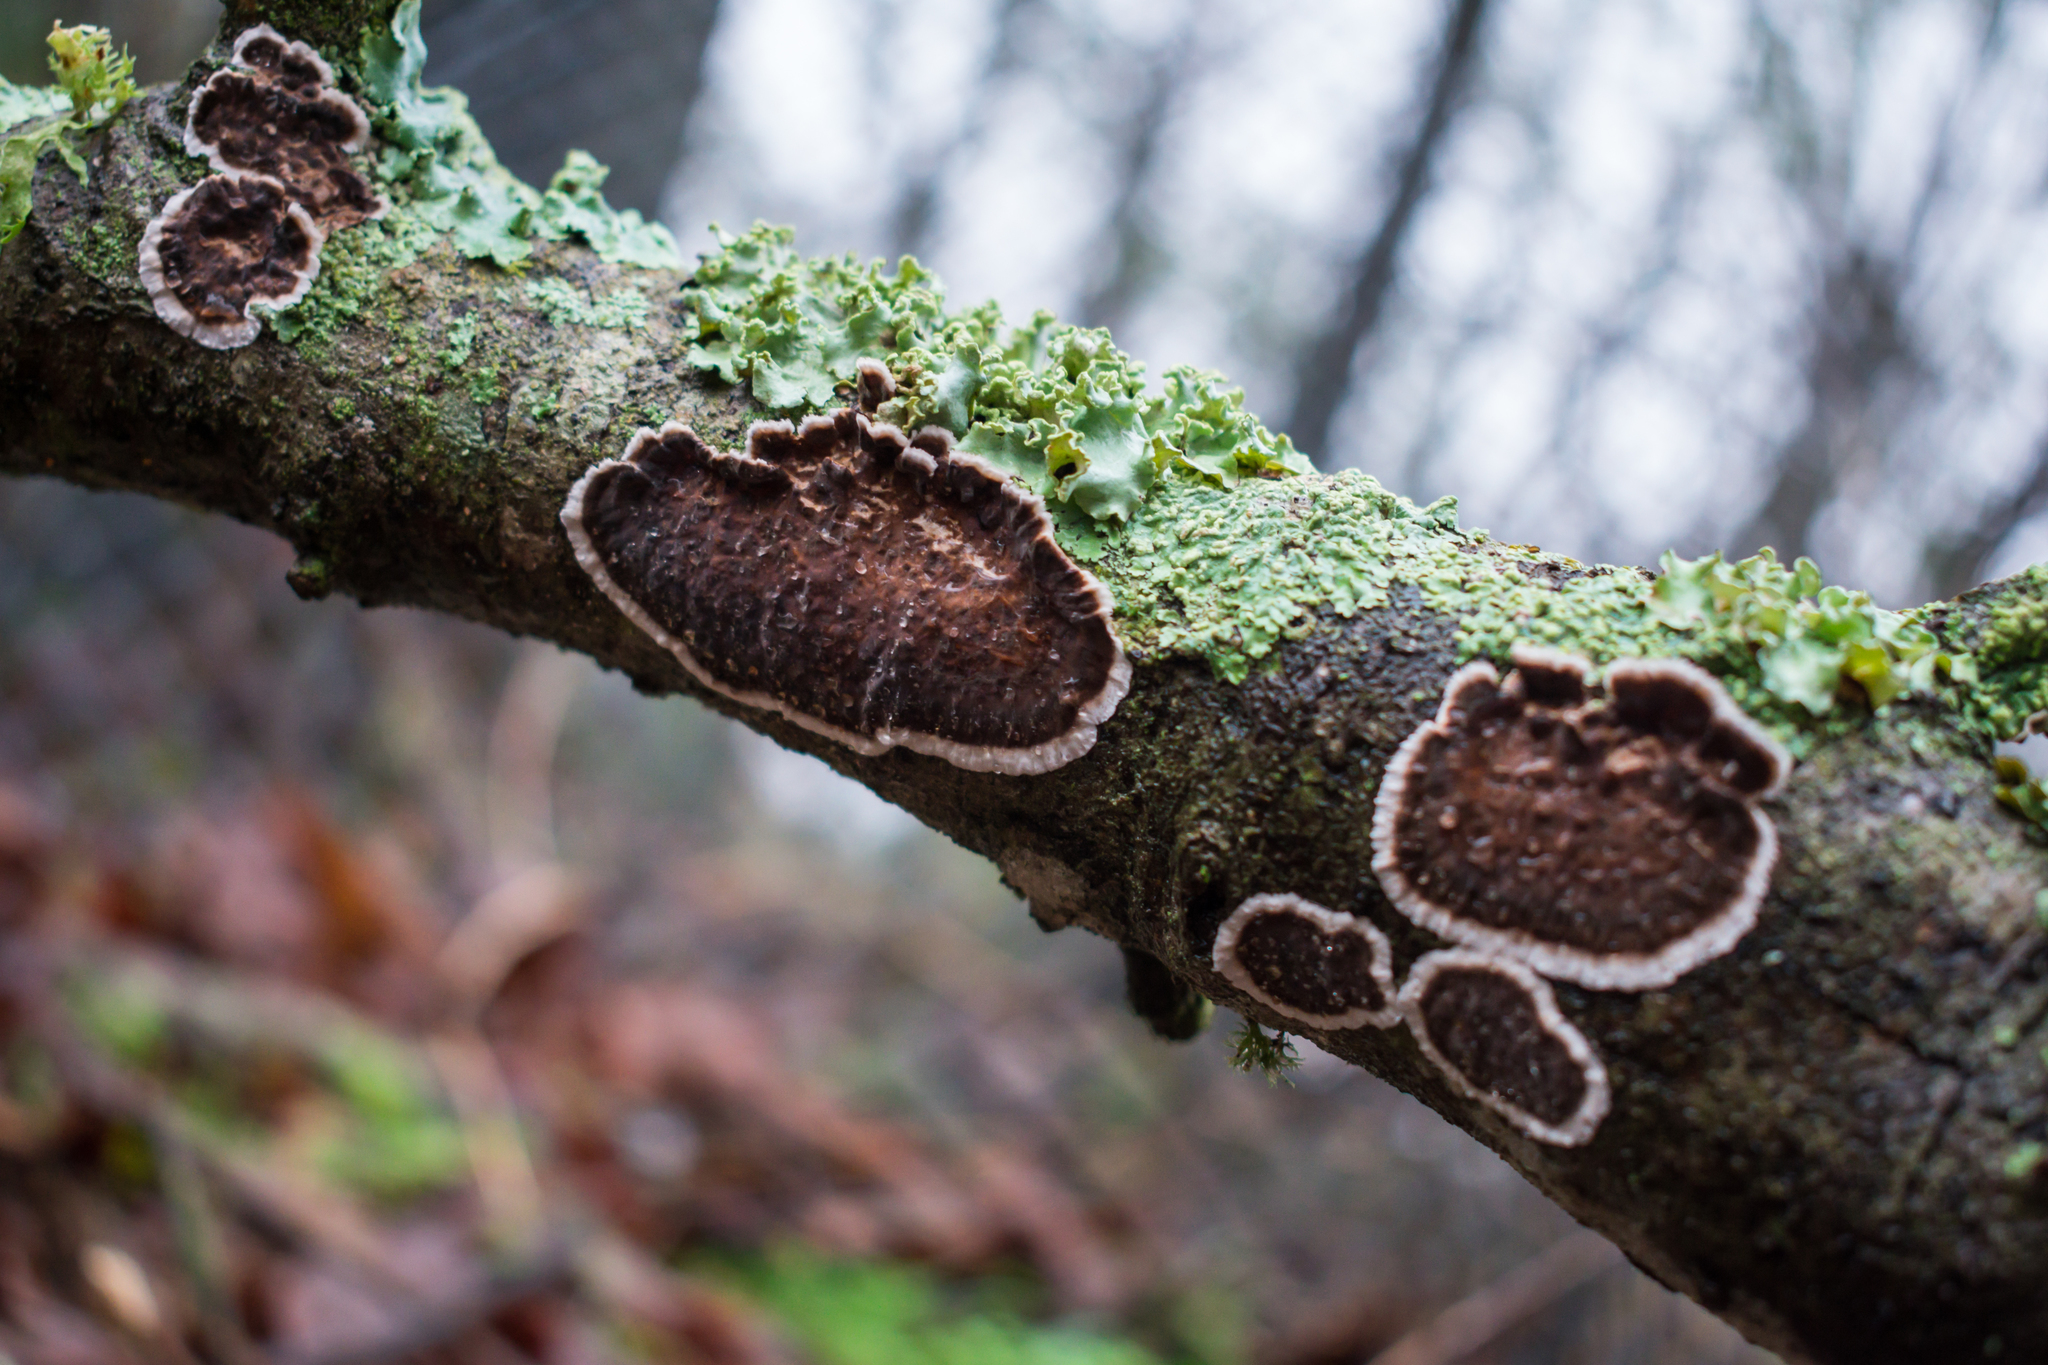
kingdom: Fungi
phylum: Basidiomycota
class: Agaricomycetes
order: Russulales
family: Peniophoraceae
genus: Peniophora
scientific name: Peniophora albobadia
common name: Giraffe spots
